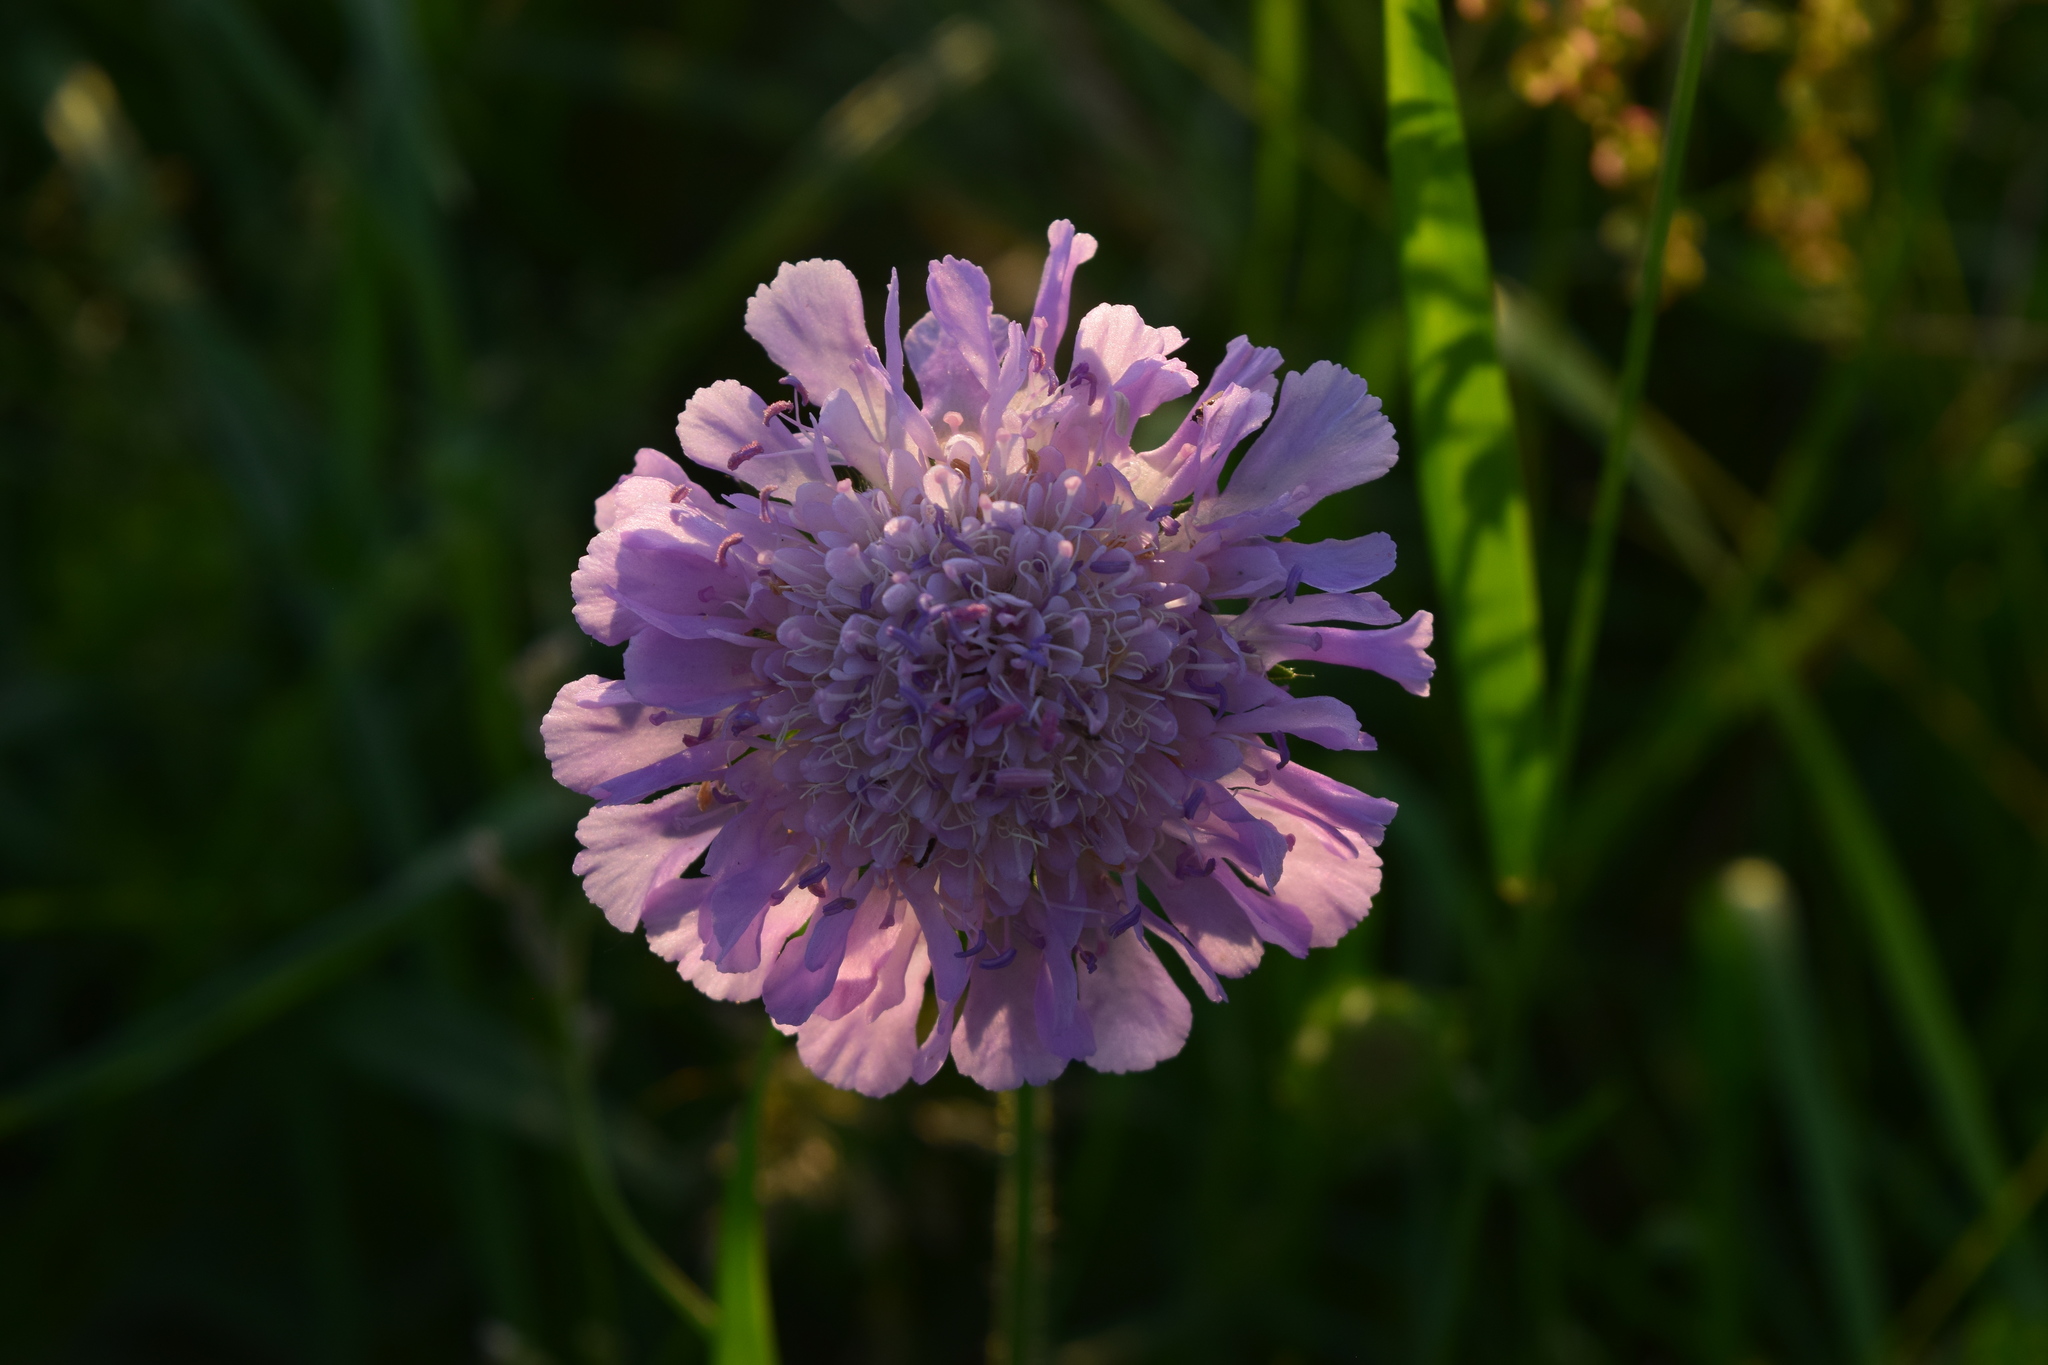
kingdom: Plantae
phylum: Tracheophyta
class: Magnoliopsida
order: Dipsacales
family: Caprifoliaceae
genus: Knautia
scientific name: Knautia arvensis
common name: Field scabiosa
